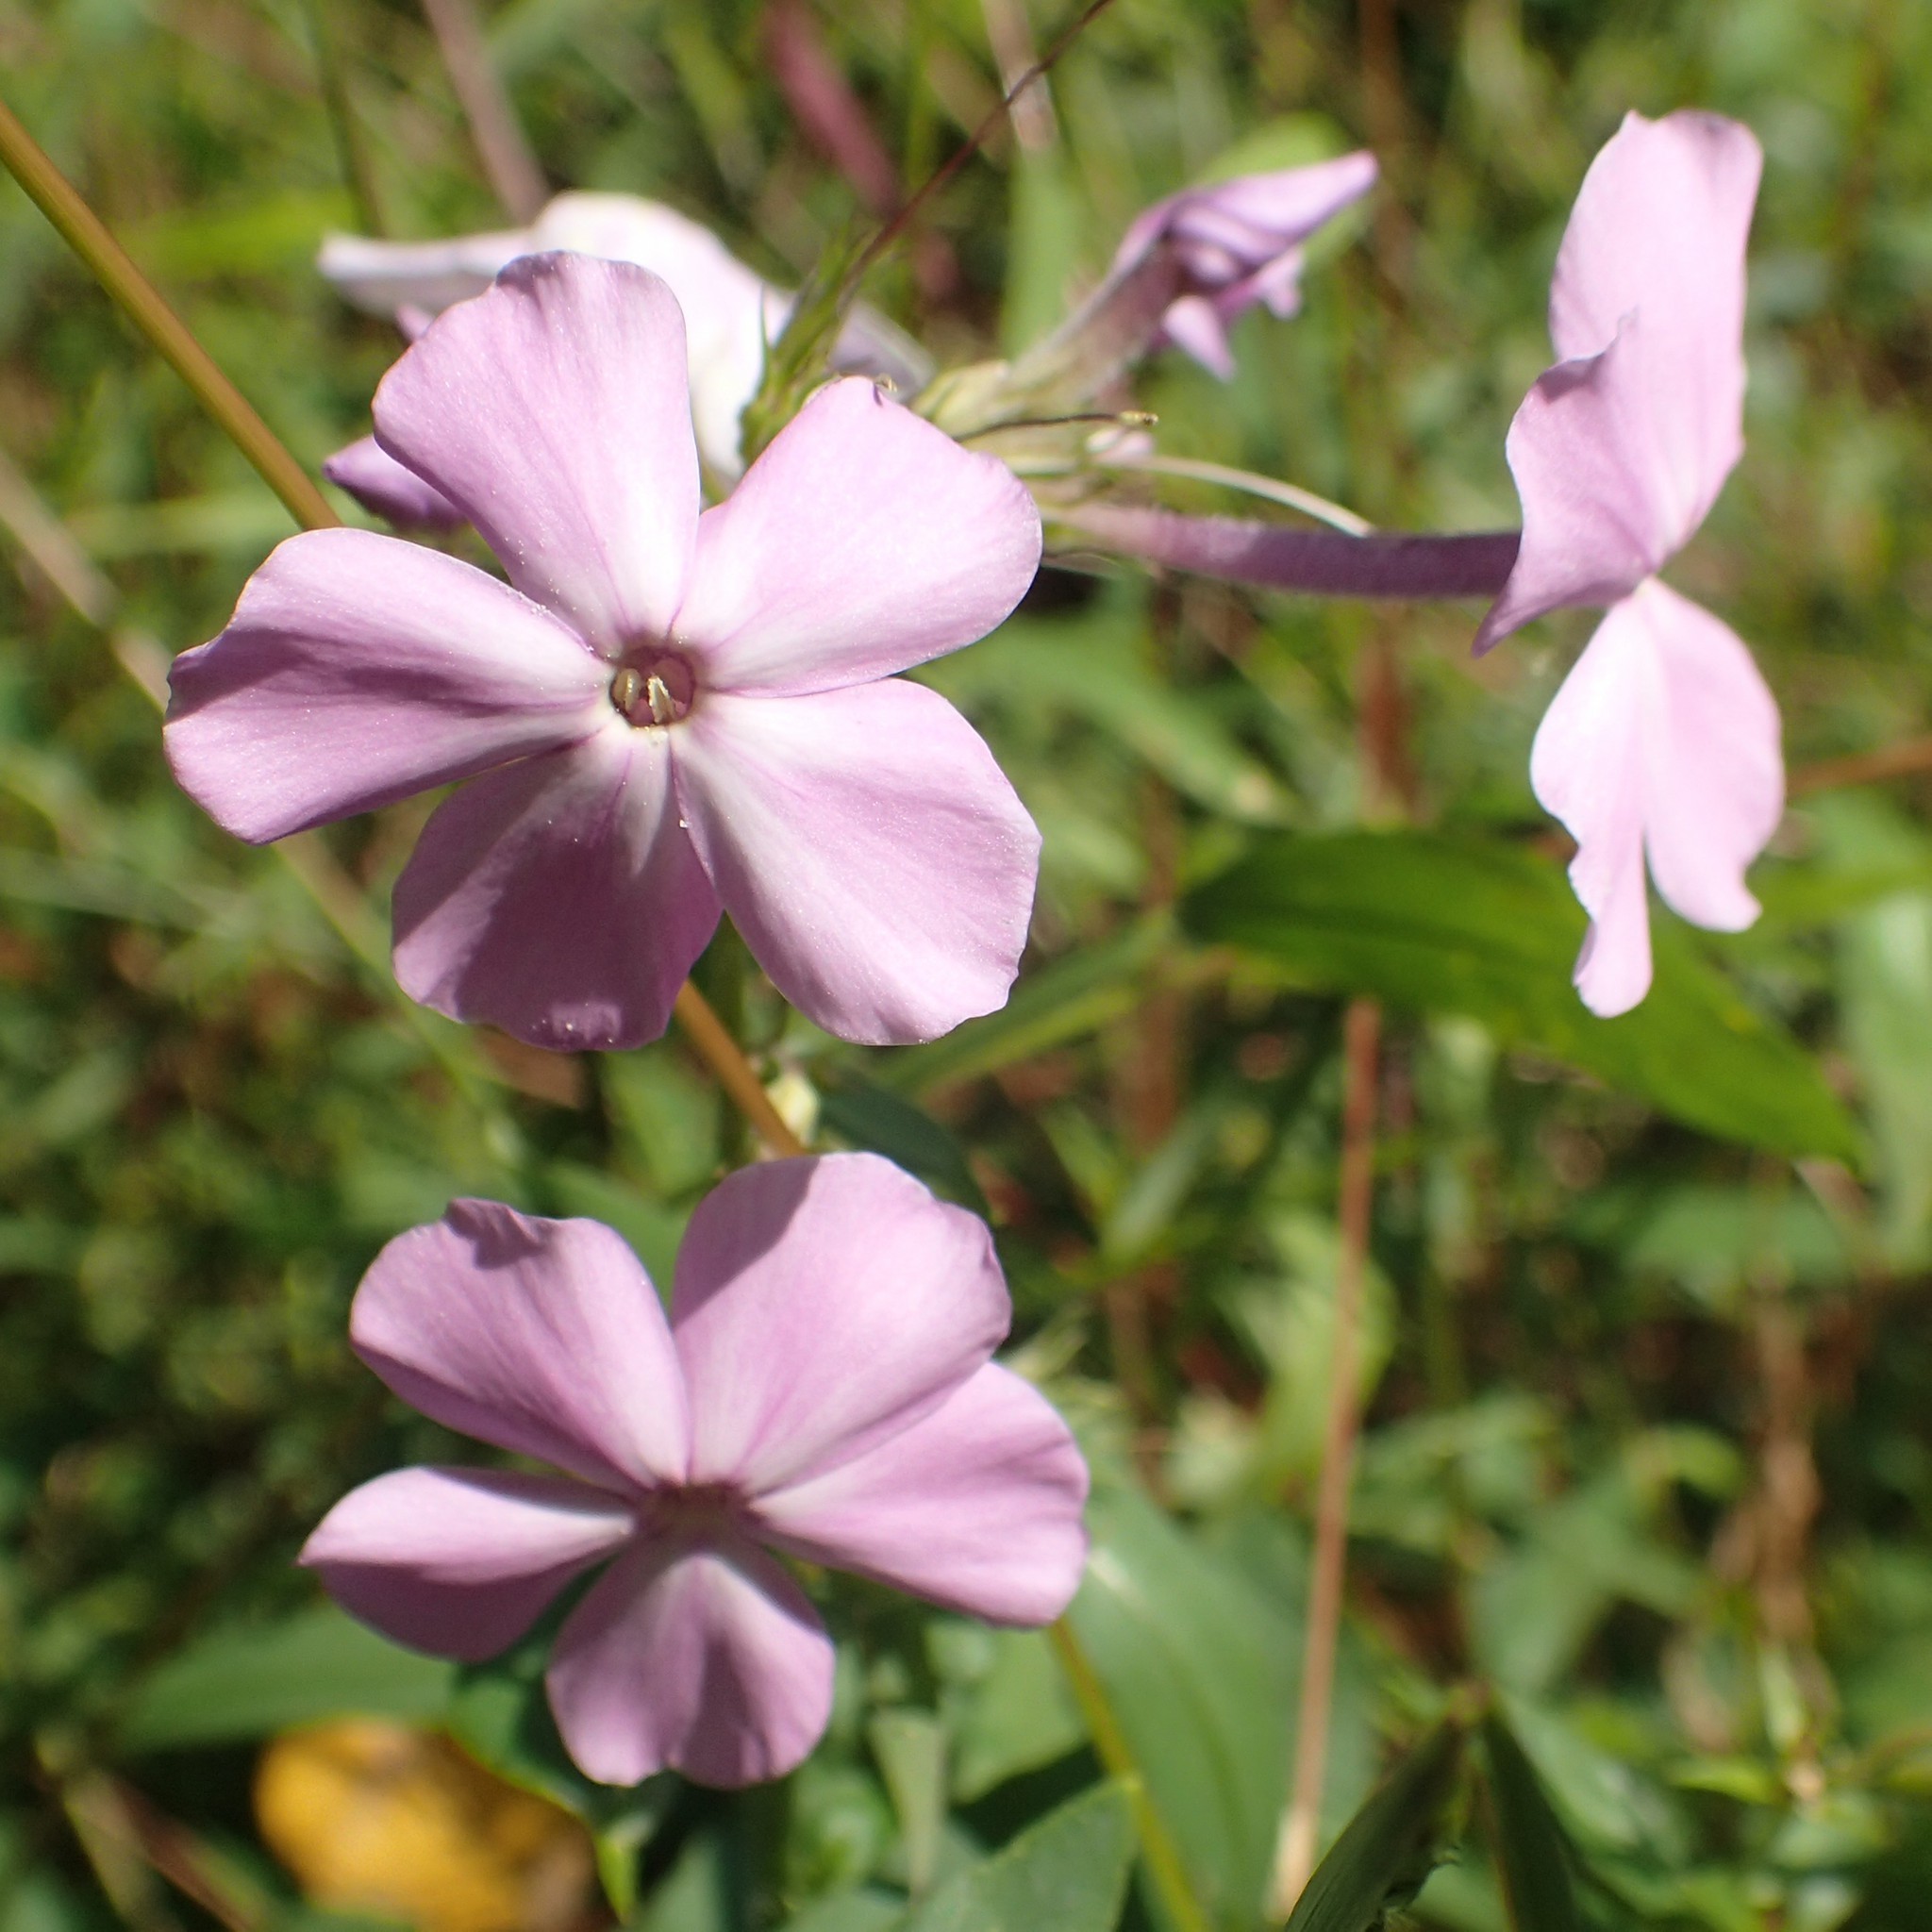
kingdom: Plantae
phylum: Tracheophyta
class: Magnoliopsida
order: Ericales
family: Polemoniaceae
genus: Phlox
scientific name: Phlox paniculata
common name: Fall phlox
